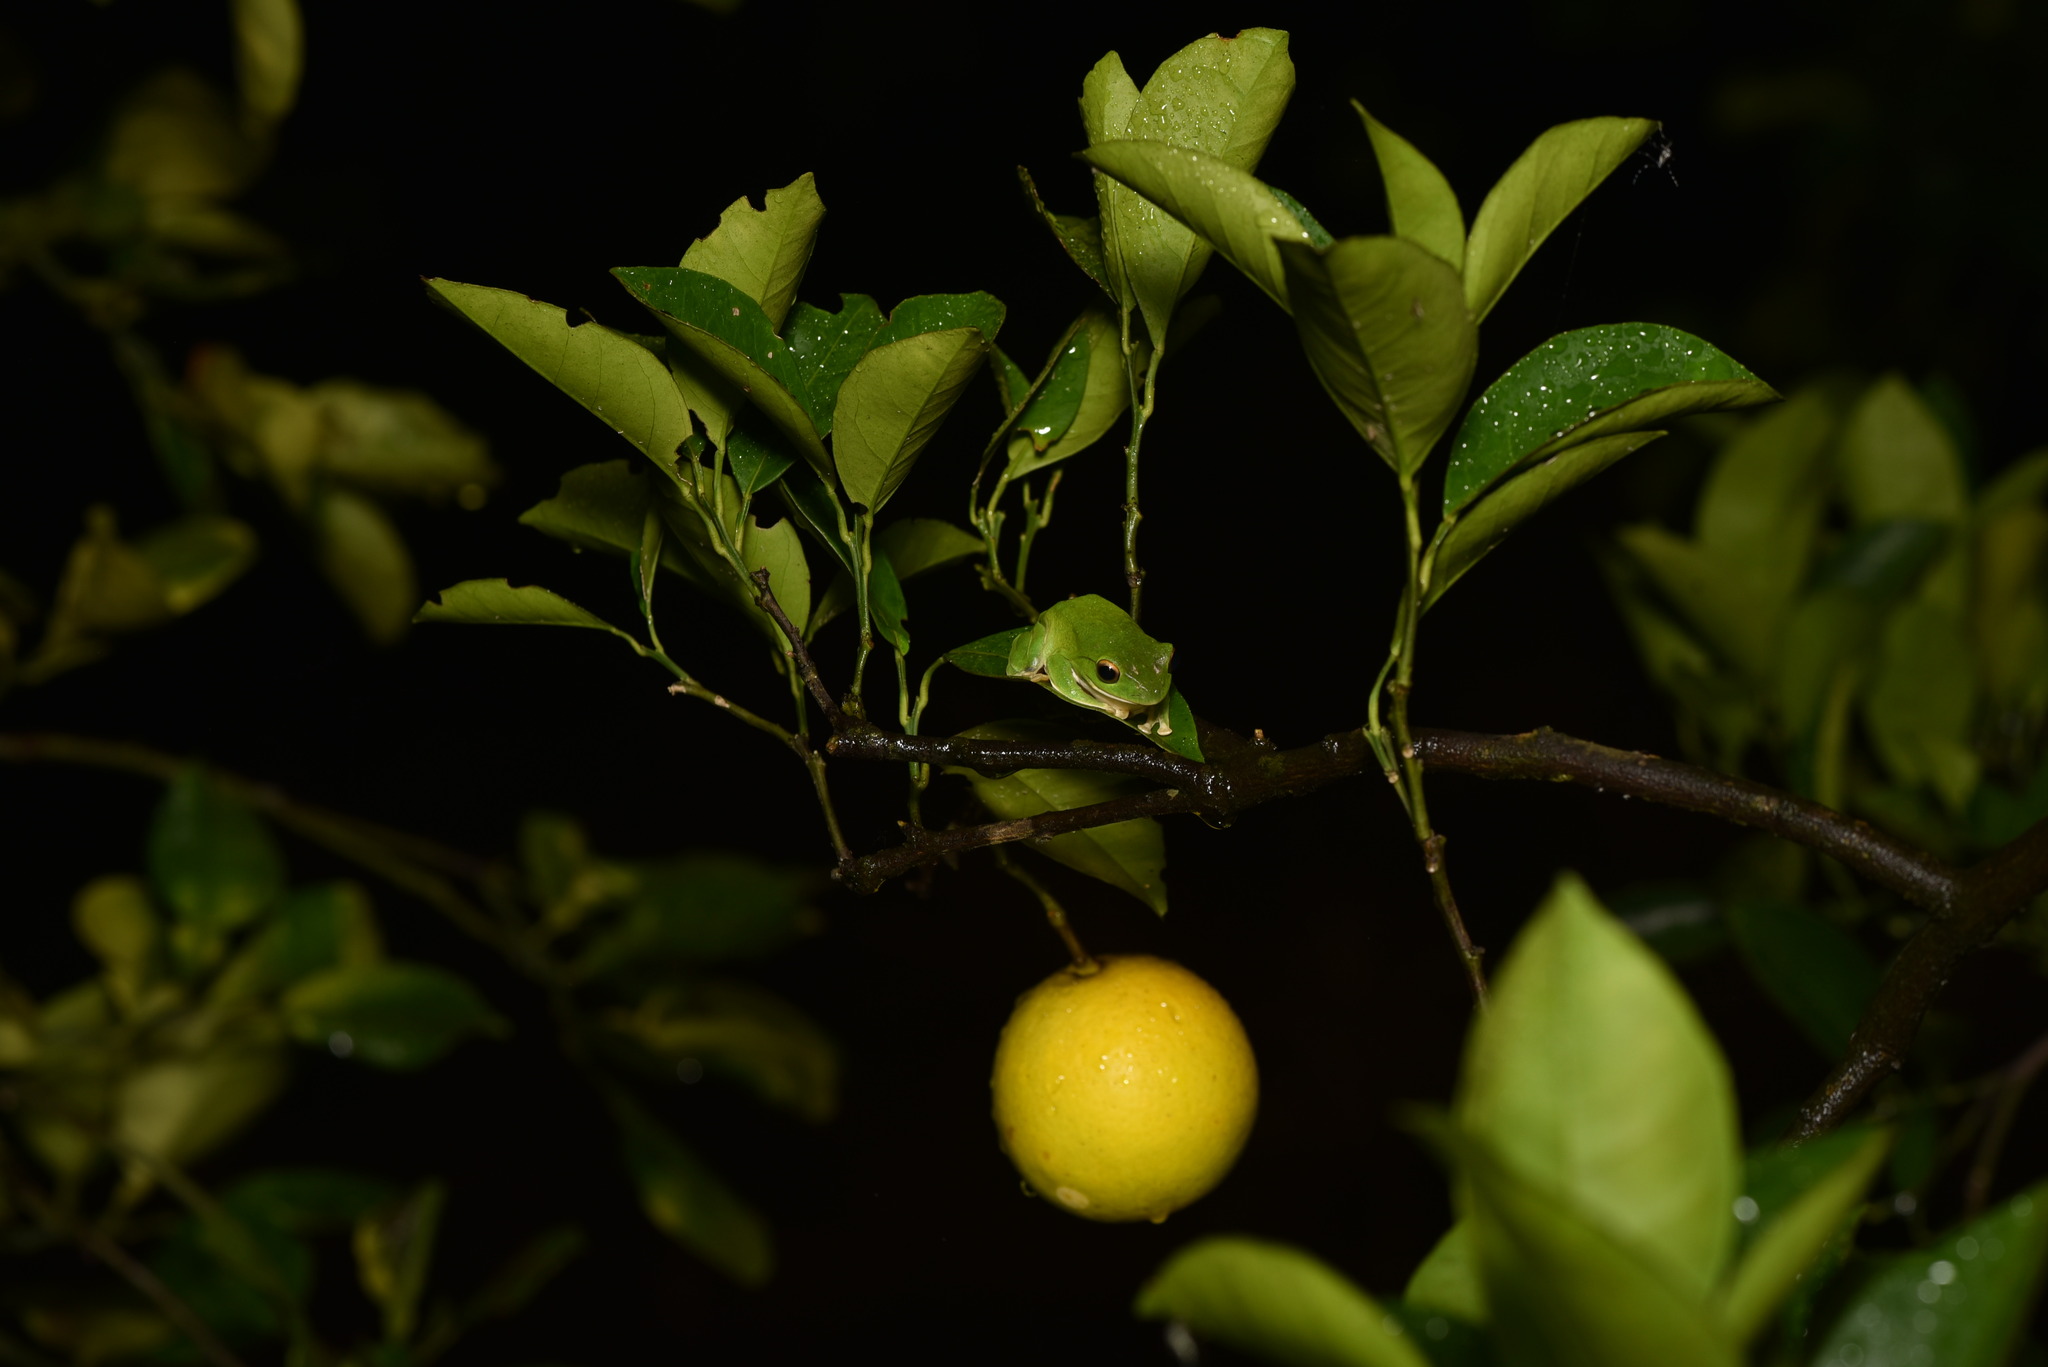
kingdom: Animalia
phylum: Chordata
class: Amphibia
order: Anura
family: Rhacophoridae
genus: Zhangixalus
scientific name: Zhangixalus moltrechti
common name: Moltrecht's treefrog
